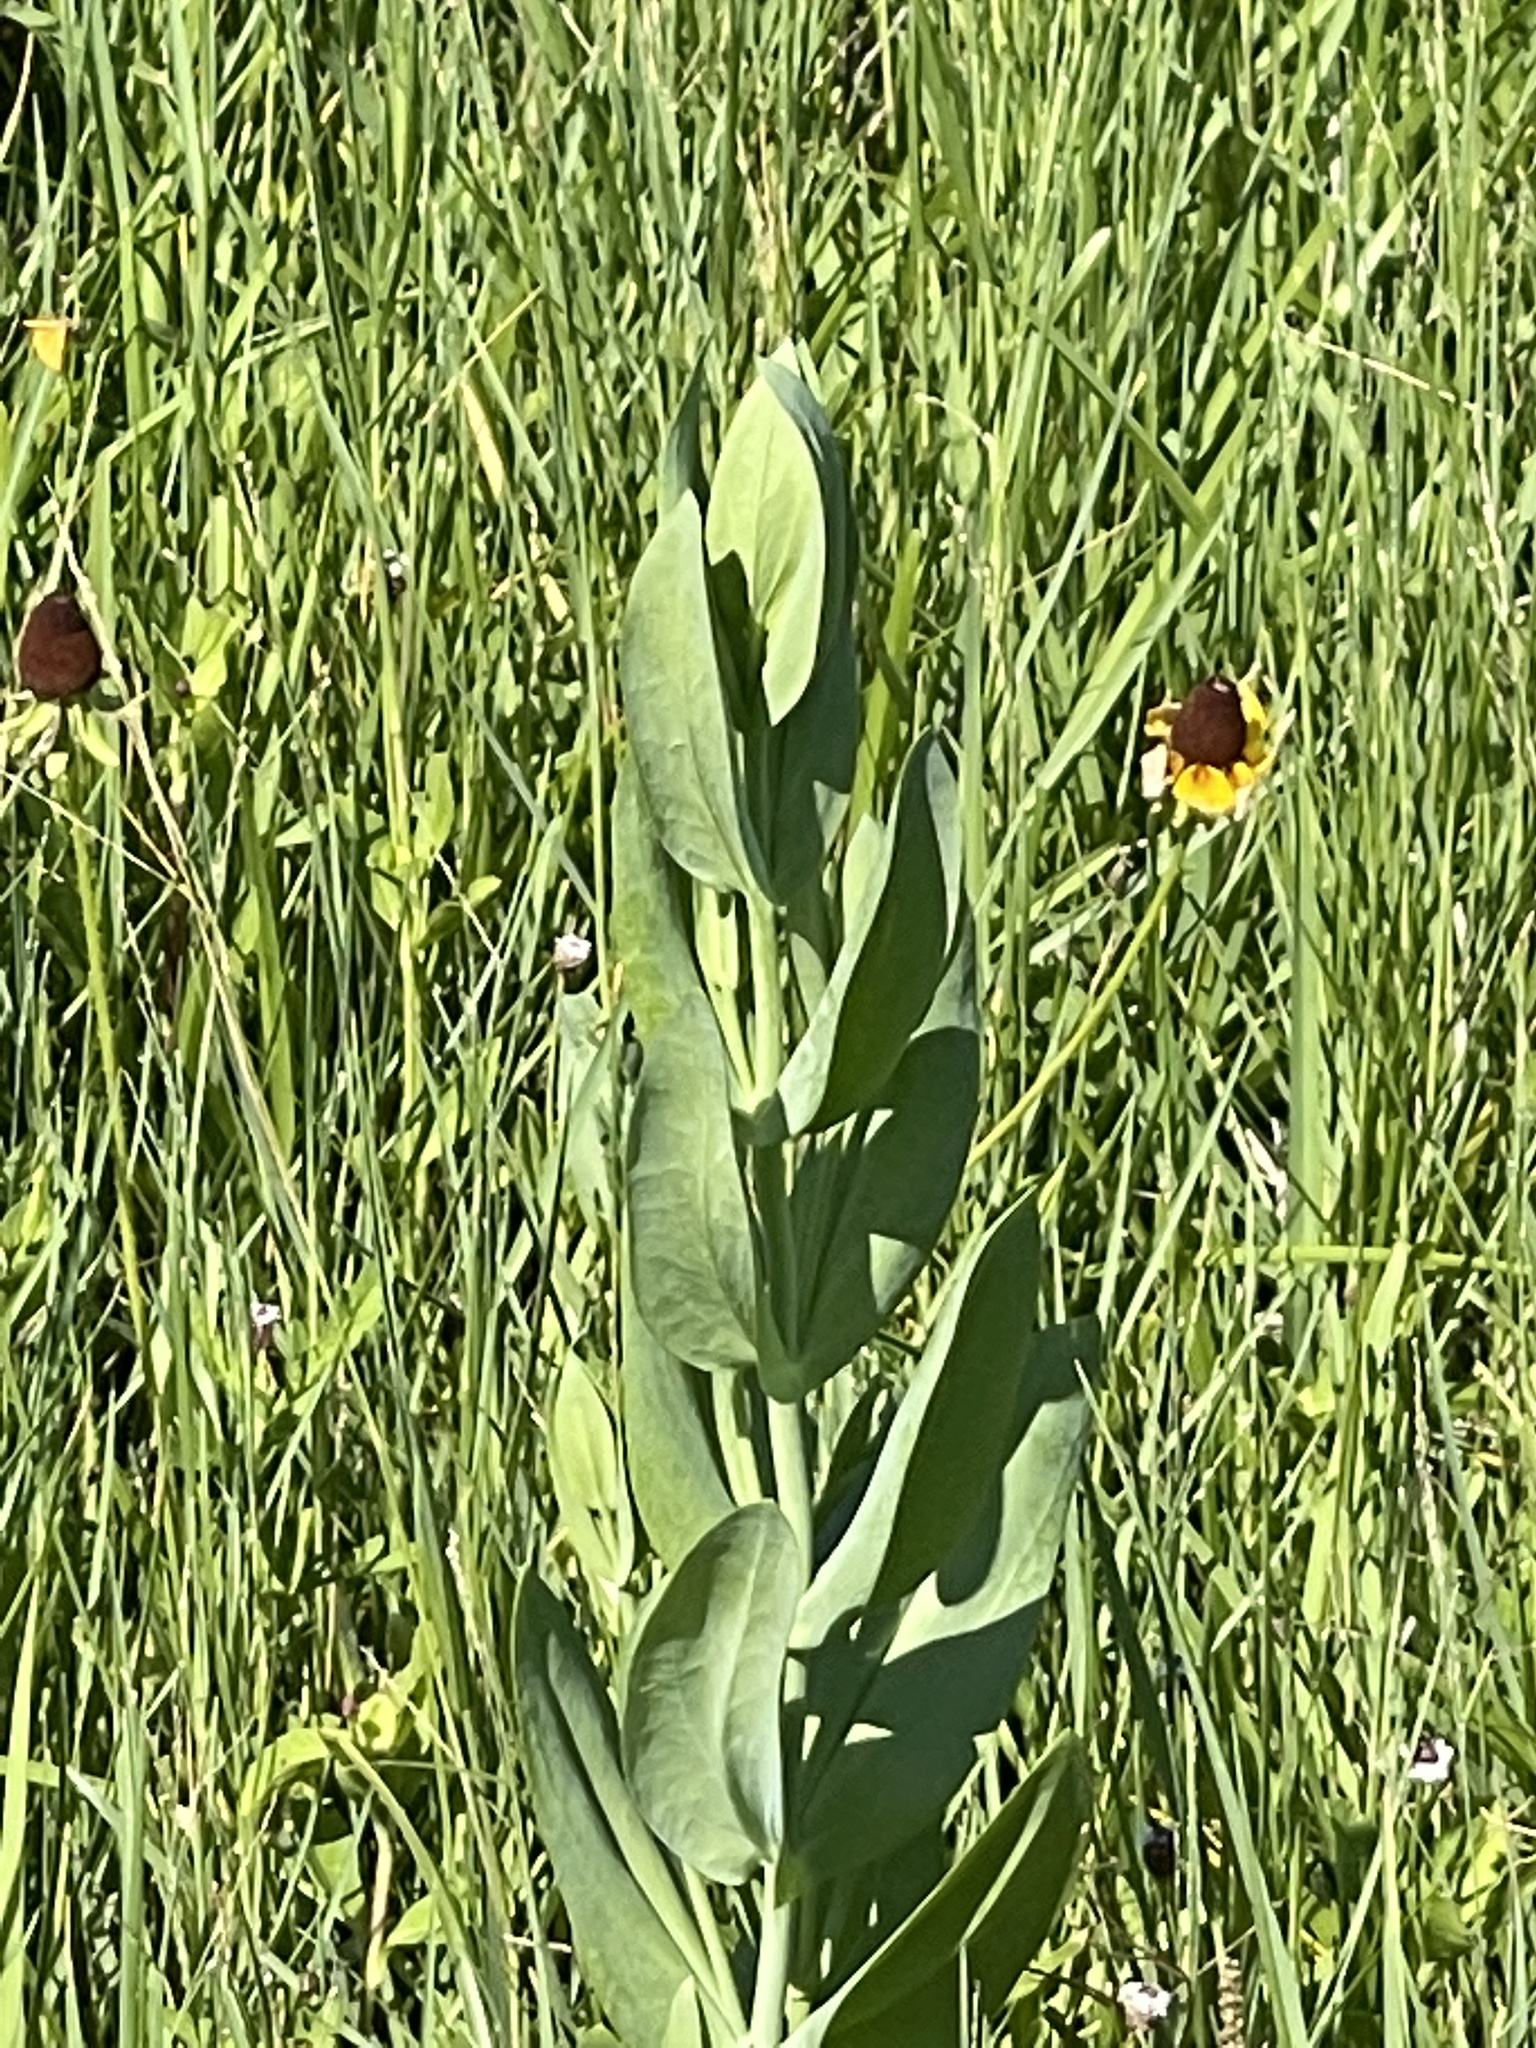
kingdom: Plantae
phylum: Tracheophyta
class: Magnoliopsida
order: Gentianales
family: Gentianaceae
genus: Eustoma
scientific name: Eustoma exaltatum
